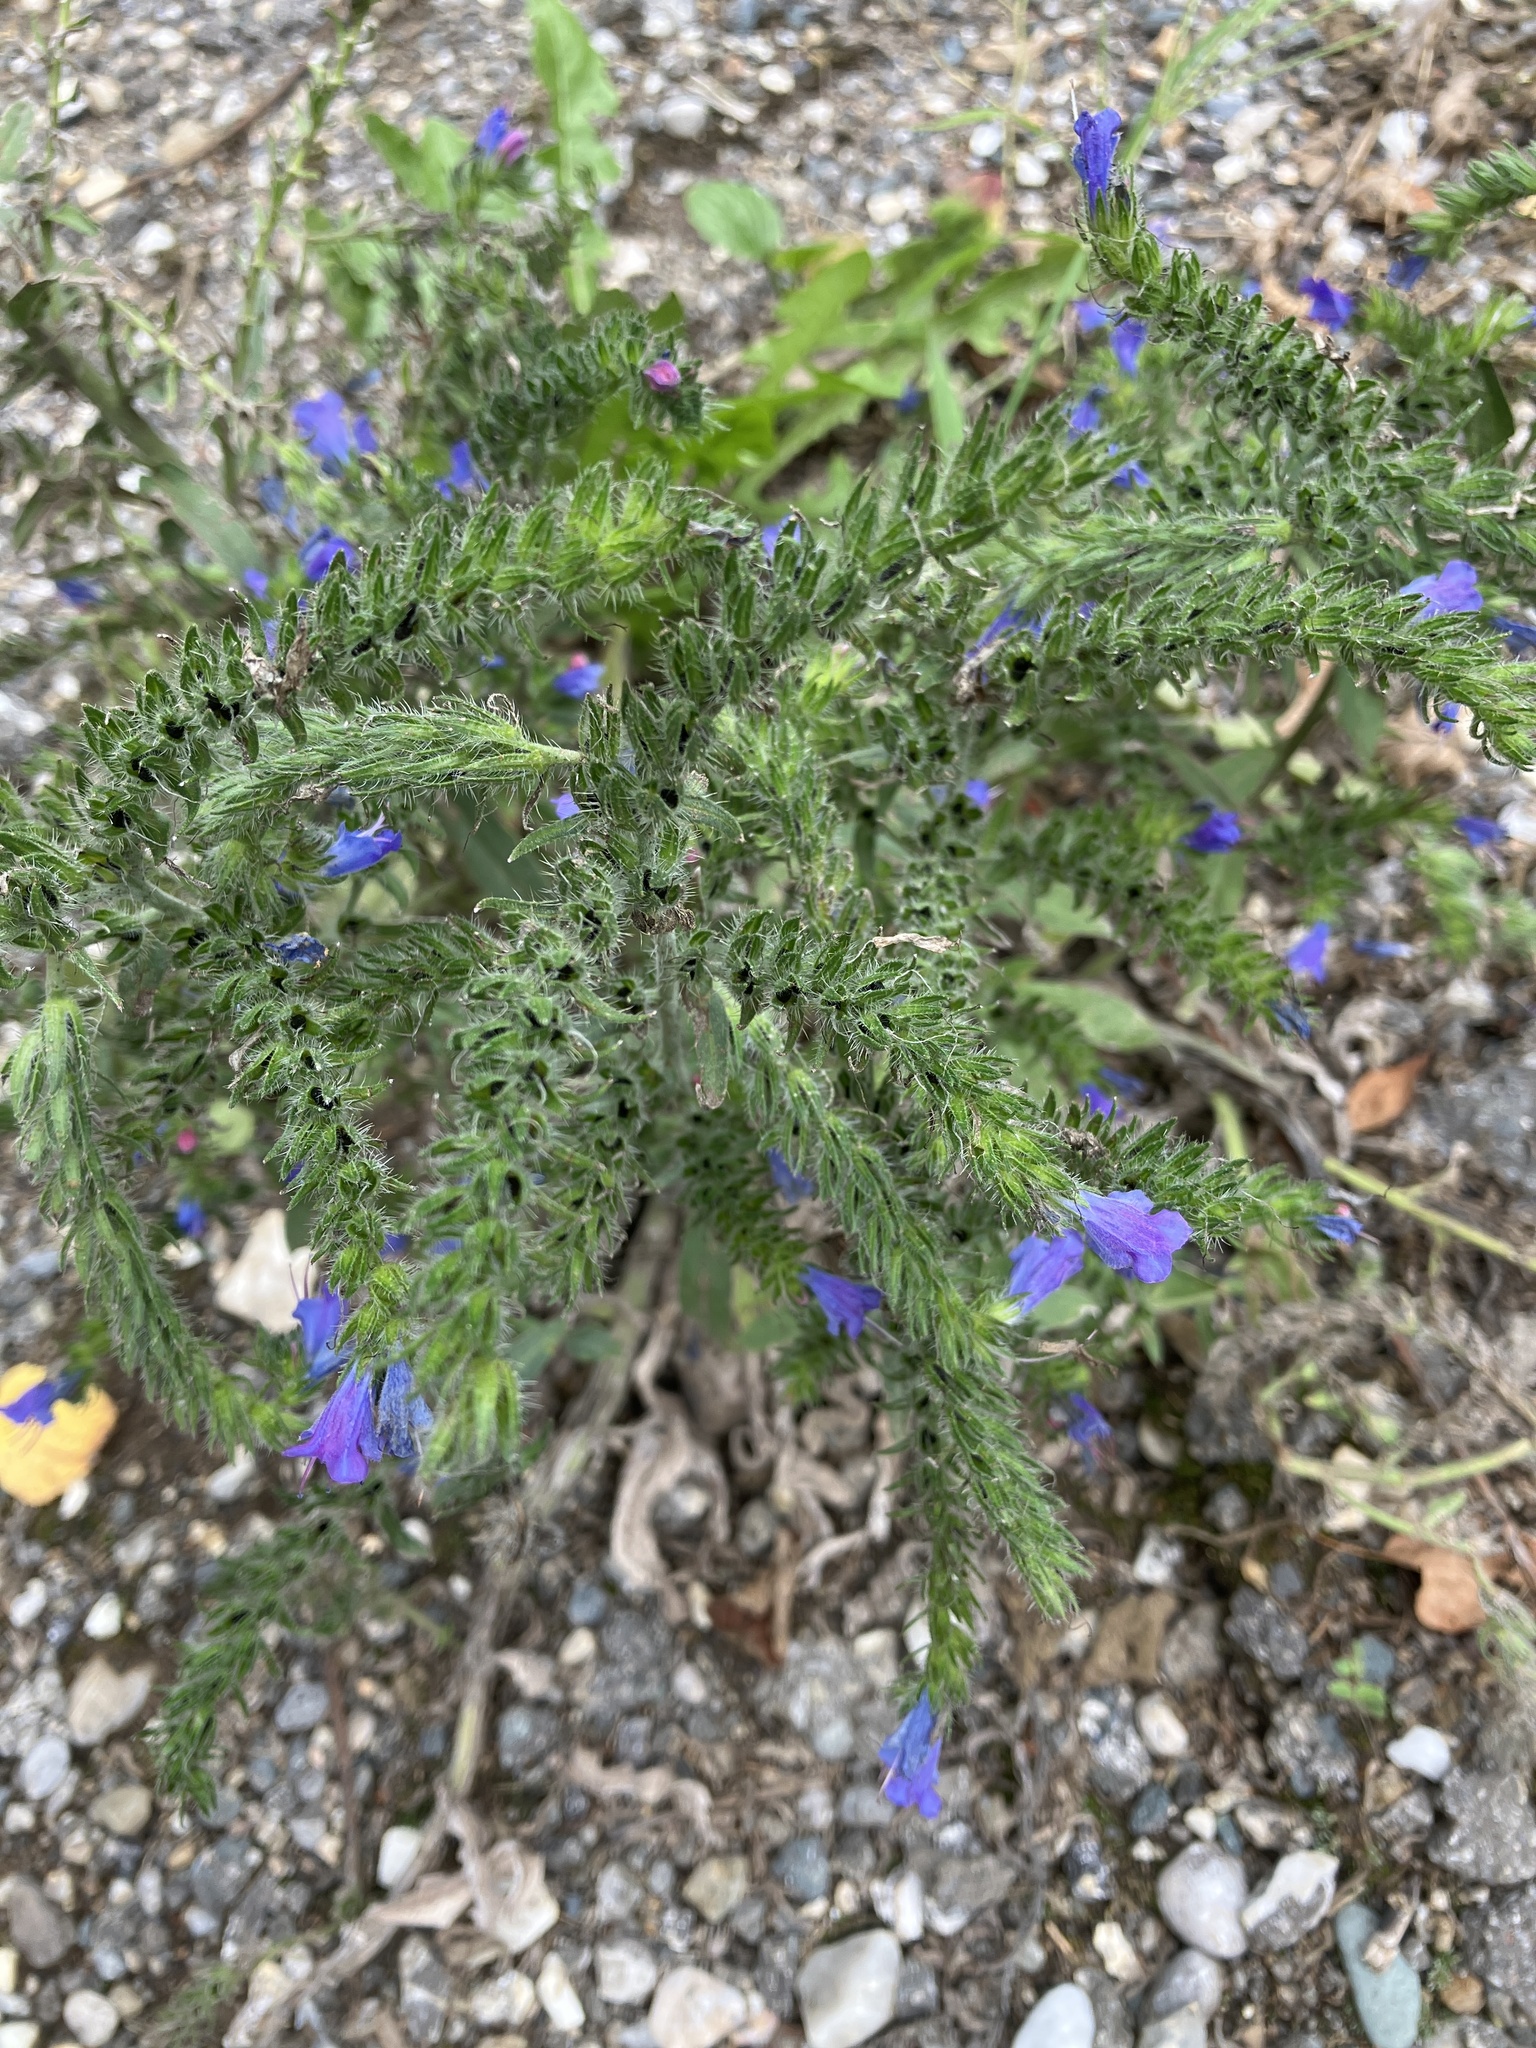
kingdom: Plantae
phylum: Tracheophyta
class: Magnoliopsida
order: Boraginales
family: Boraginaceae
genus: Echium
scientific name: Echium vulgare
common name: Common viper's bugloss
